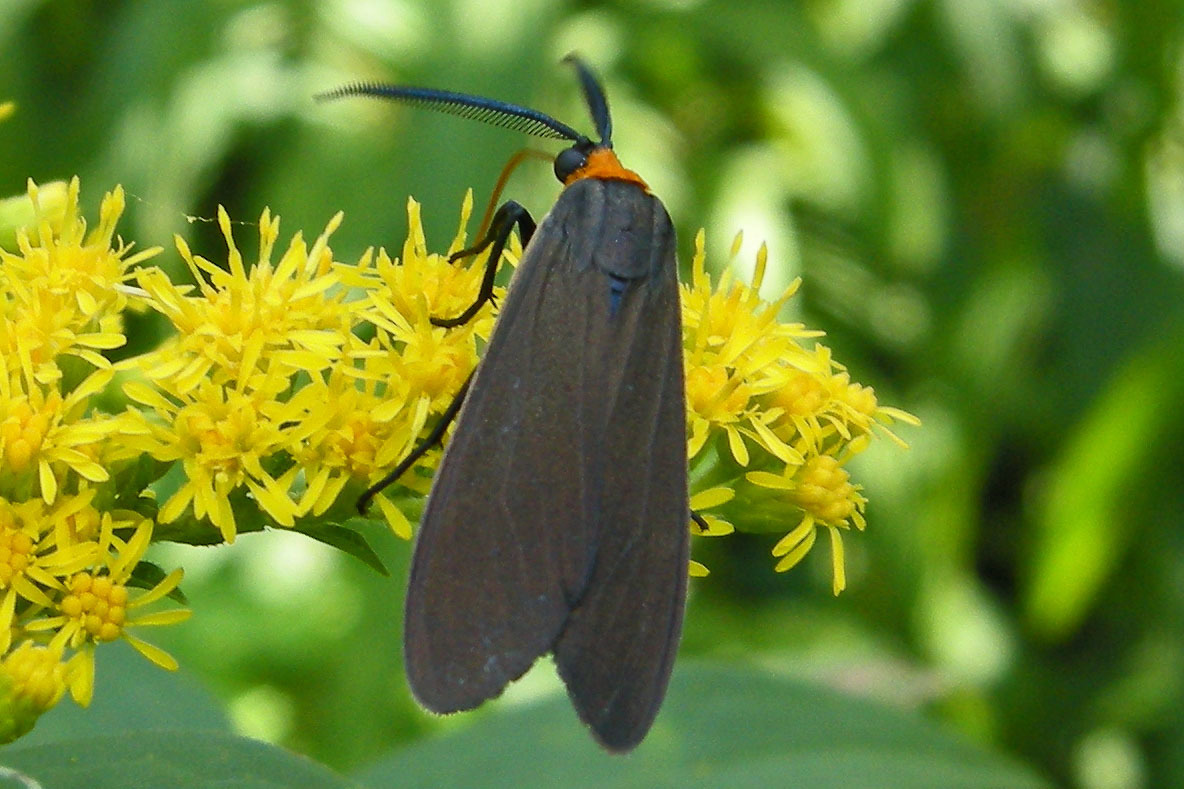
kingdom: Animalia
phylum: Arthropoda
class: Insecta
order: Lepidoptera
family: Erebidae
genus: Cisseps
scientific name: Cisseps fulvicollis
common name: Yellow-collared scape moth
